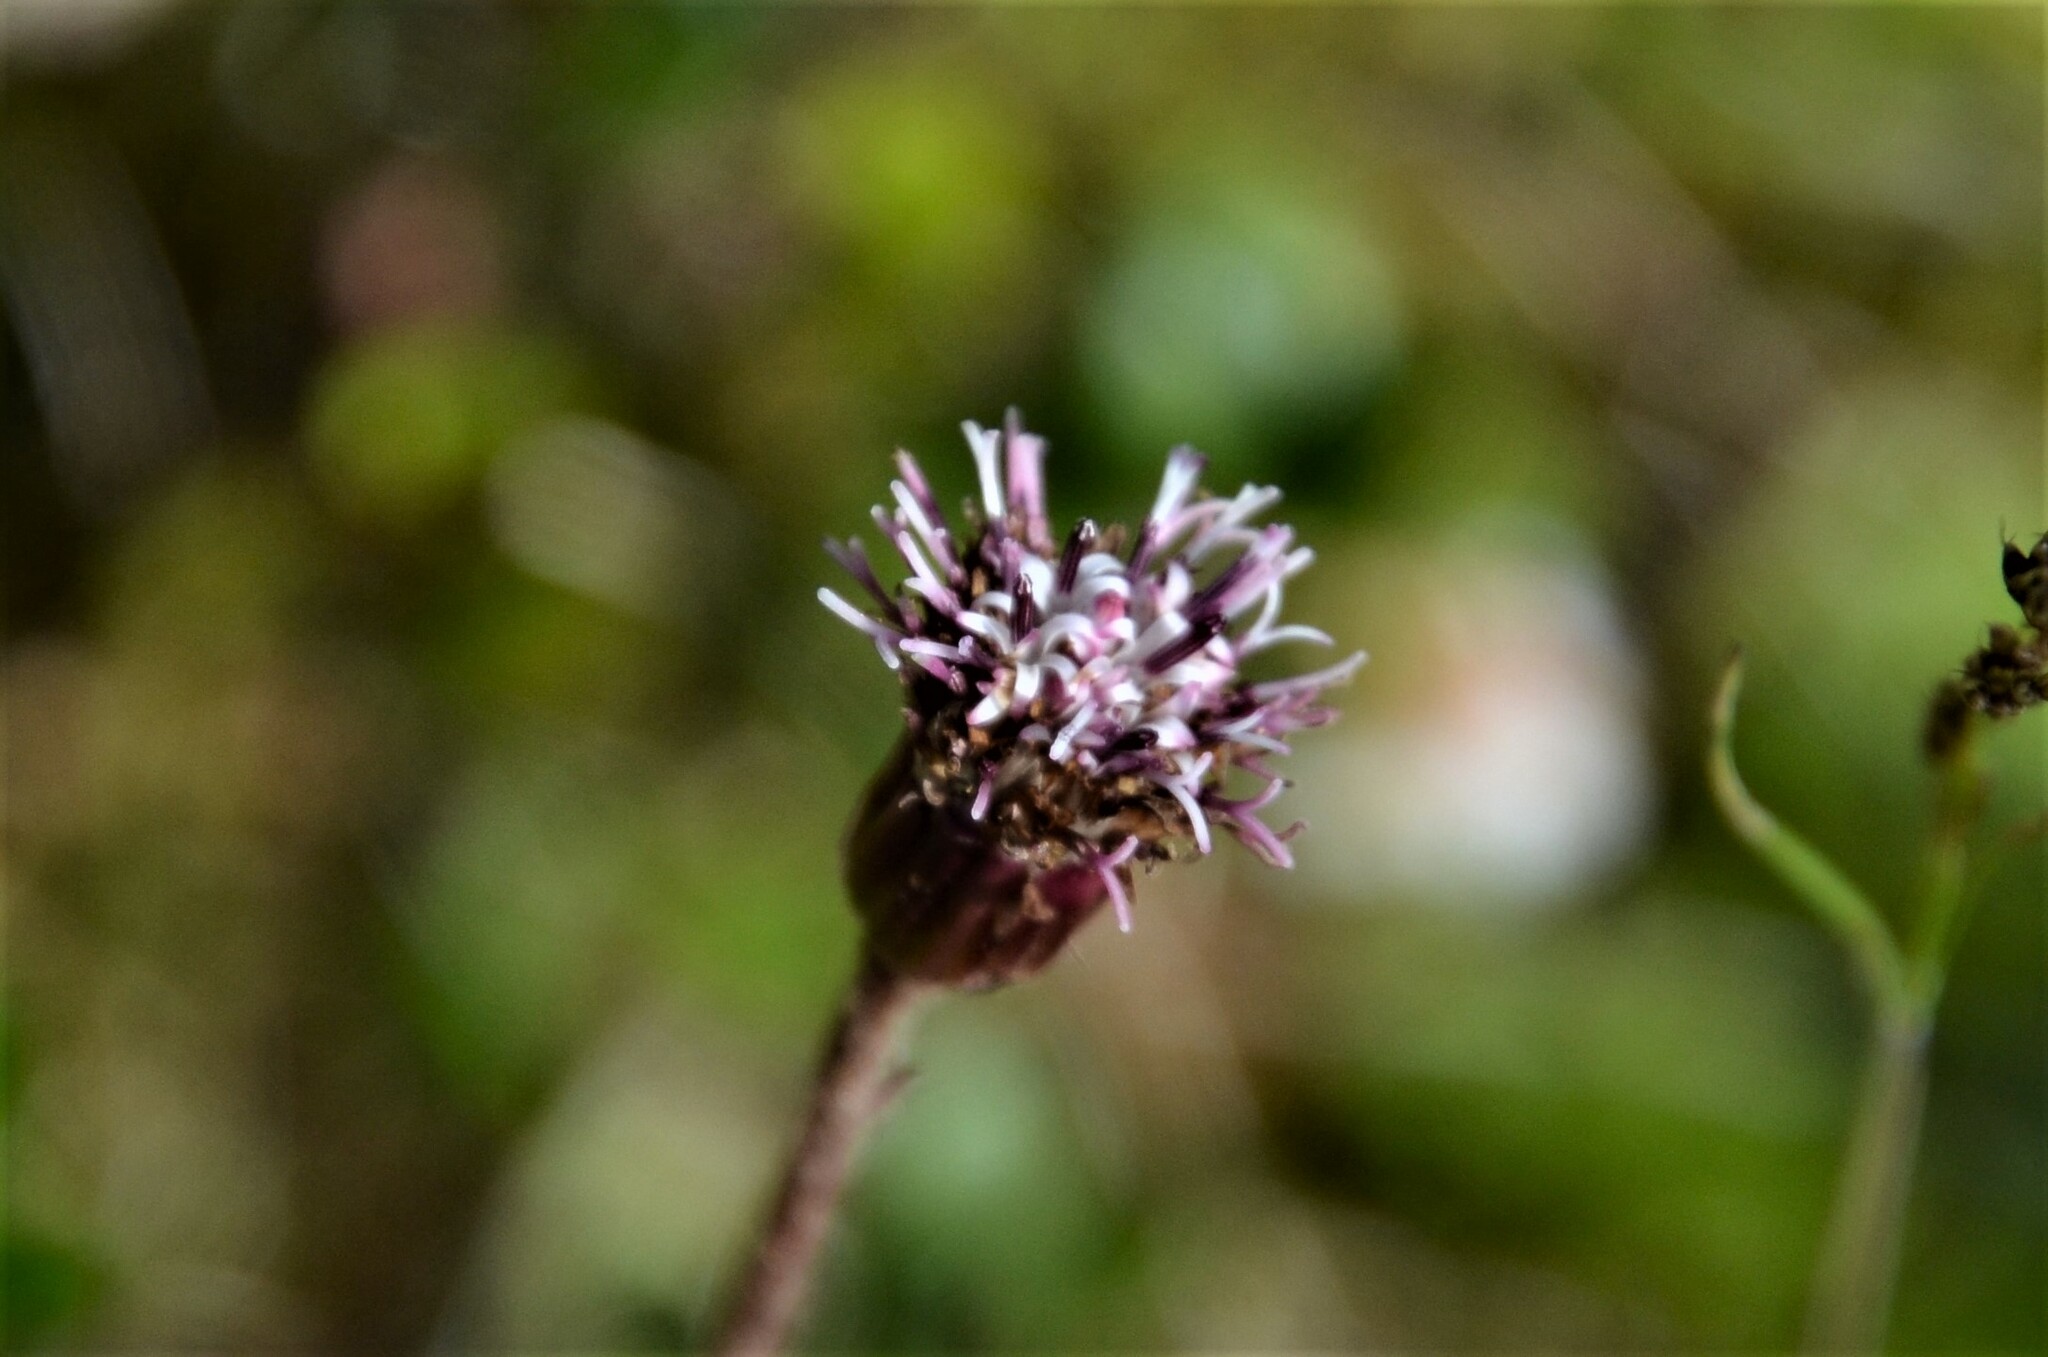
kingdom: Plantae
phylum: Tracheophyta
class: Magnoliopsida
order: Asterales
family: Asteraceae
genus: Homogyne
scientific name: Homogyne alpina
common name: Purple colt's-foot
